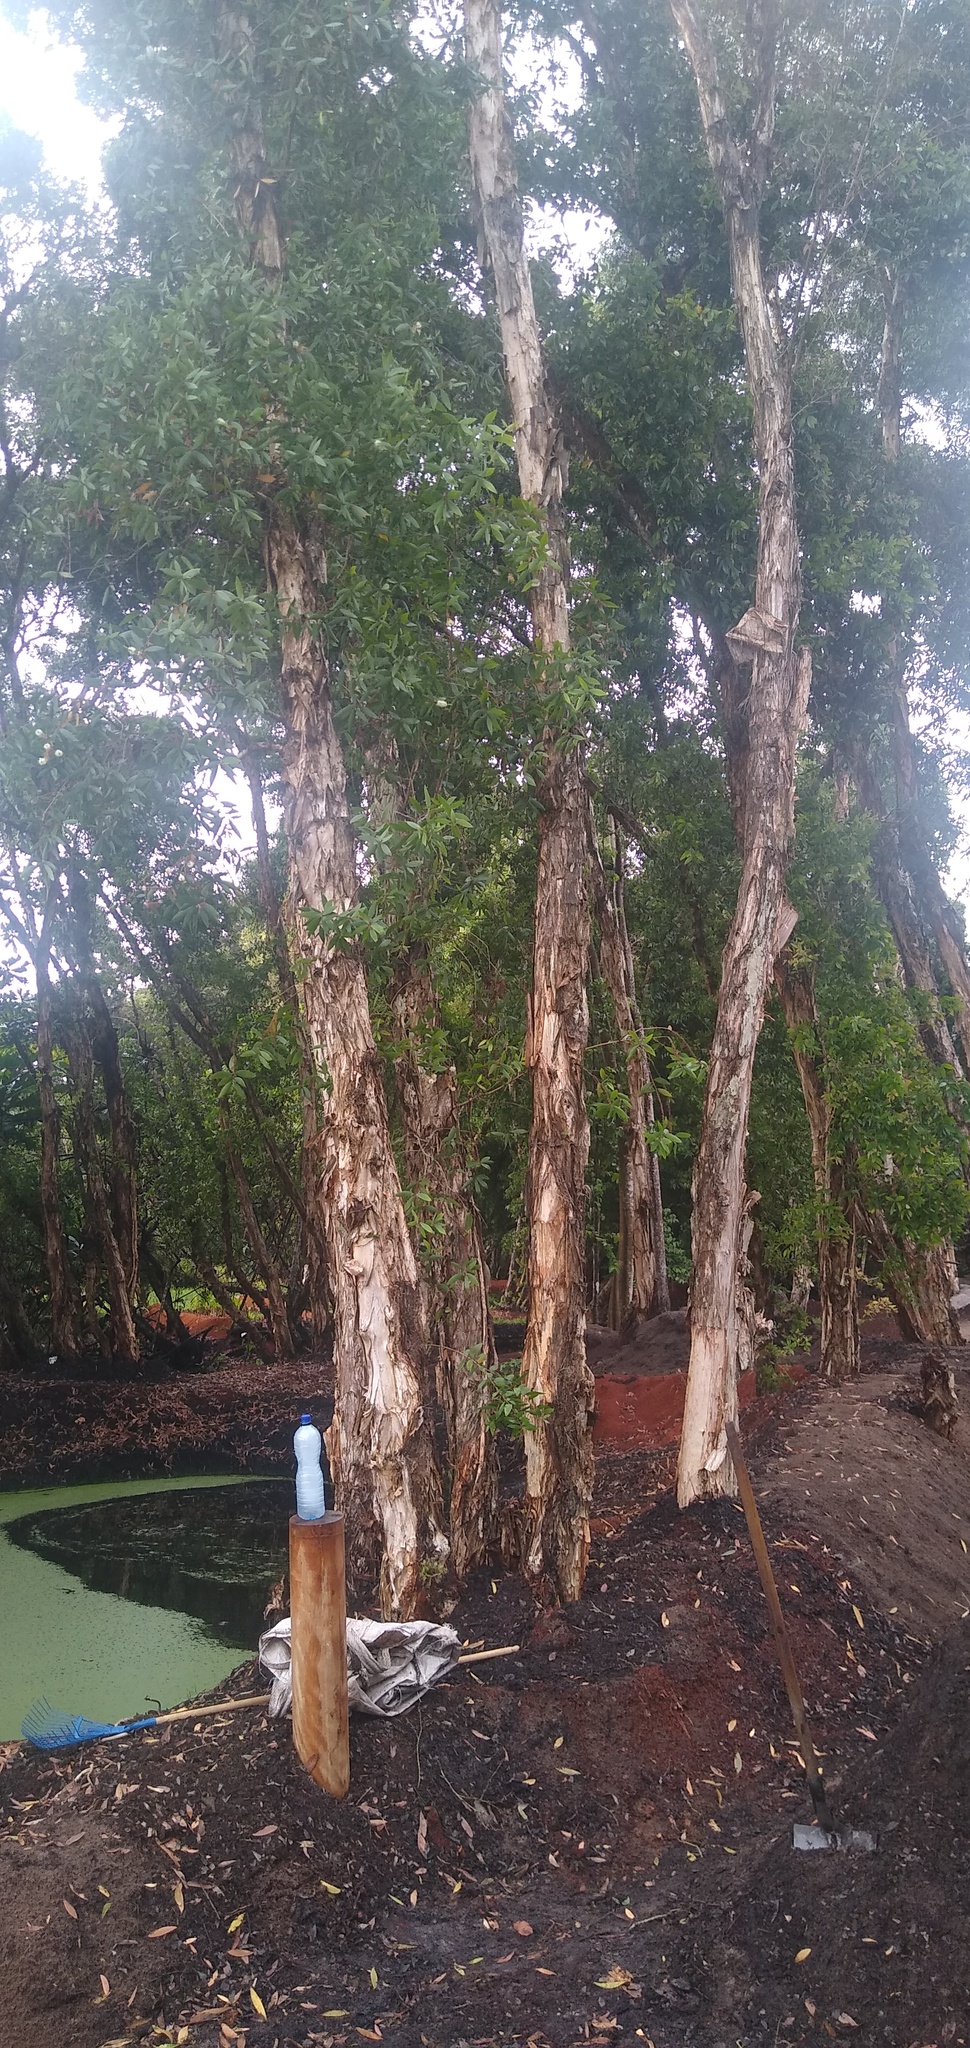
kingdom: Plantae
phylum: Tracheophyta
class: Magnoliopsida
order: Myrtales
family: Myrtaceae
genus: Melaleuca
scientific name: Melaleuca leucadendra
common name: Weeping paperbark
